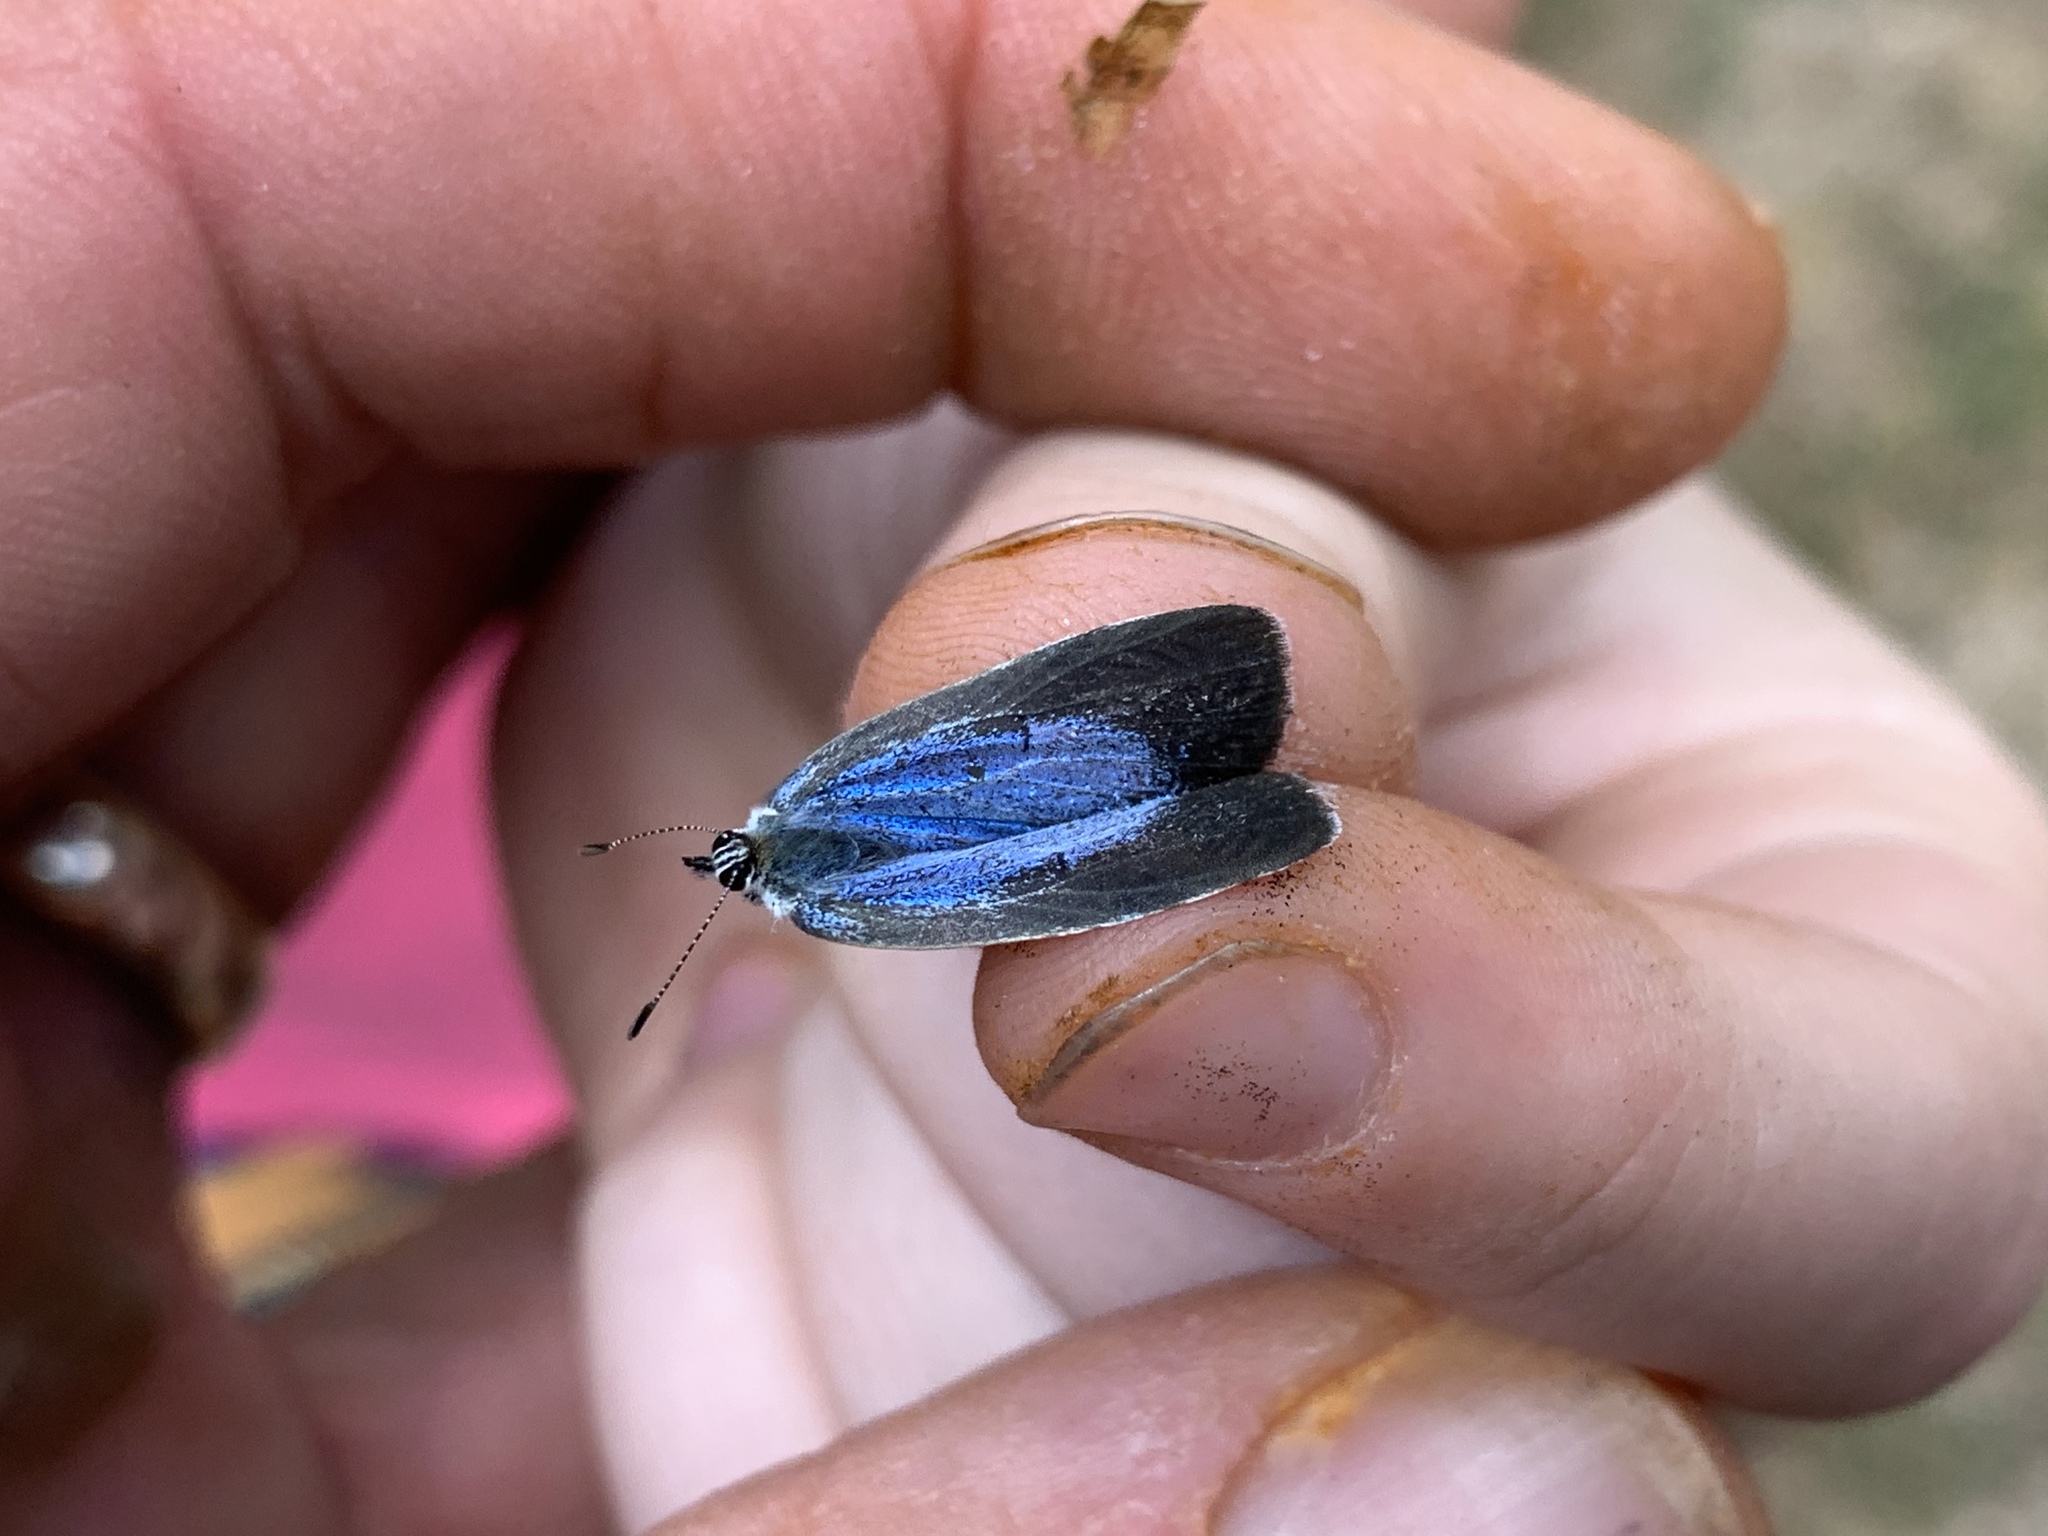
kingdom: Animalia
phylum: Arthropoda
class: Insecta
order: Lepidoptera
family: Lycaenidae
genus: Celastrina
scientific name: Celastrina ladon
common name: Spring azure
